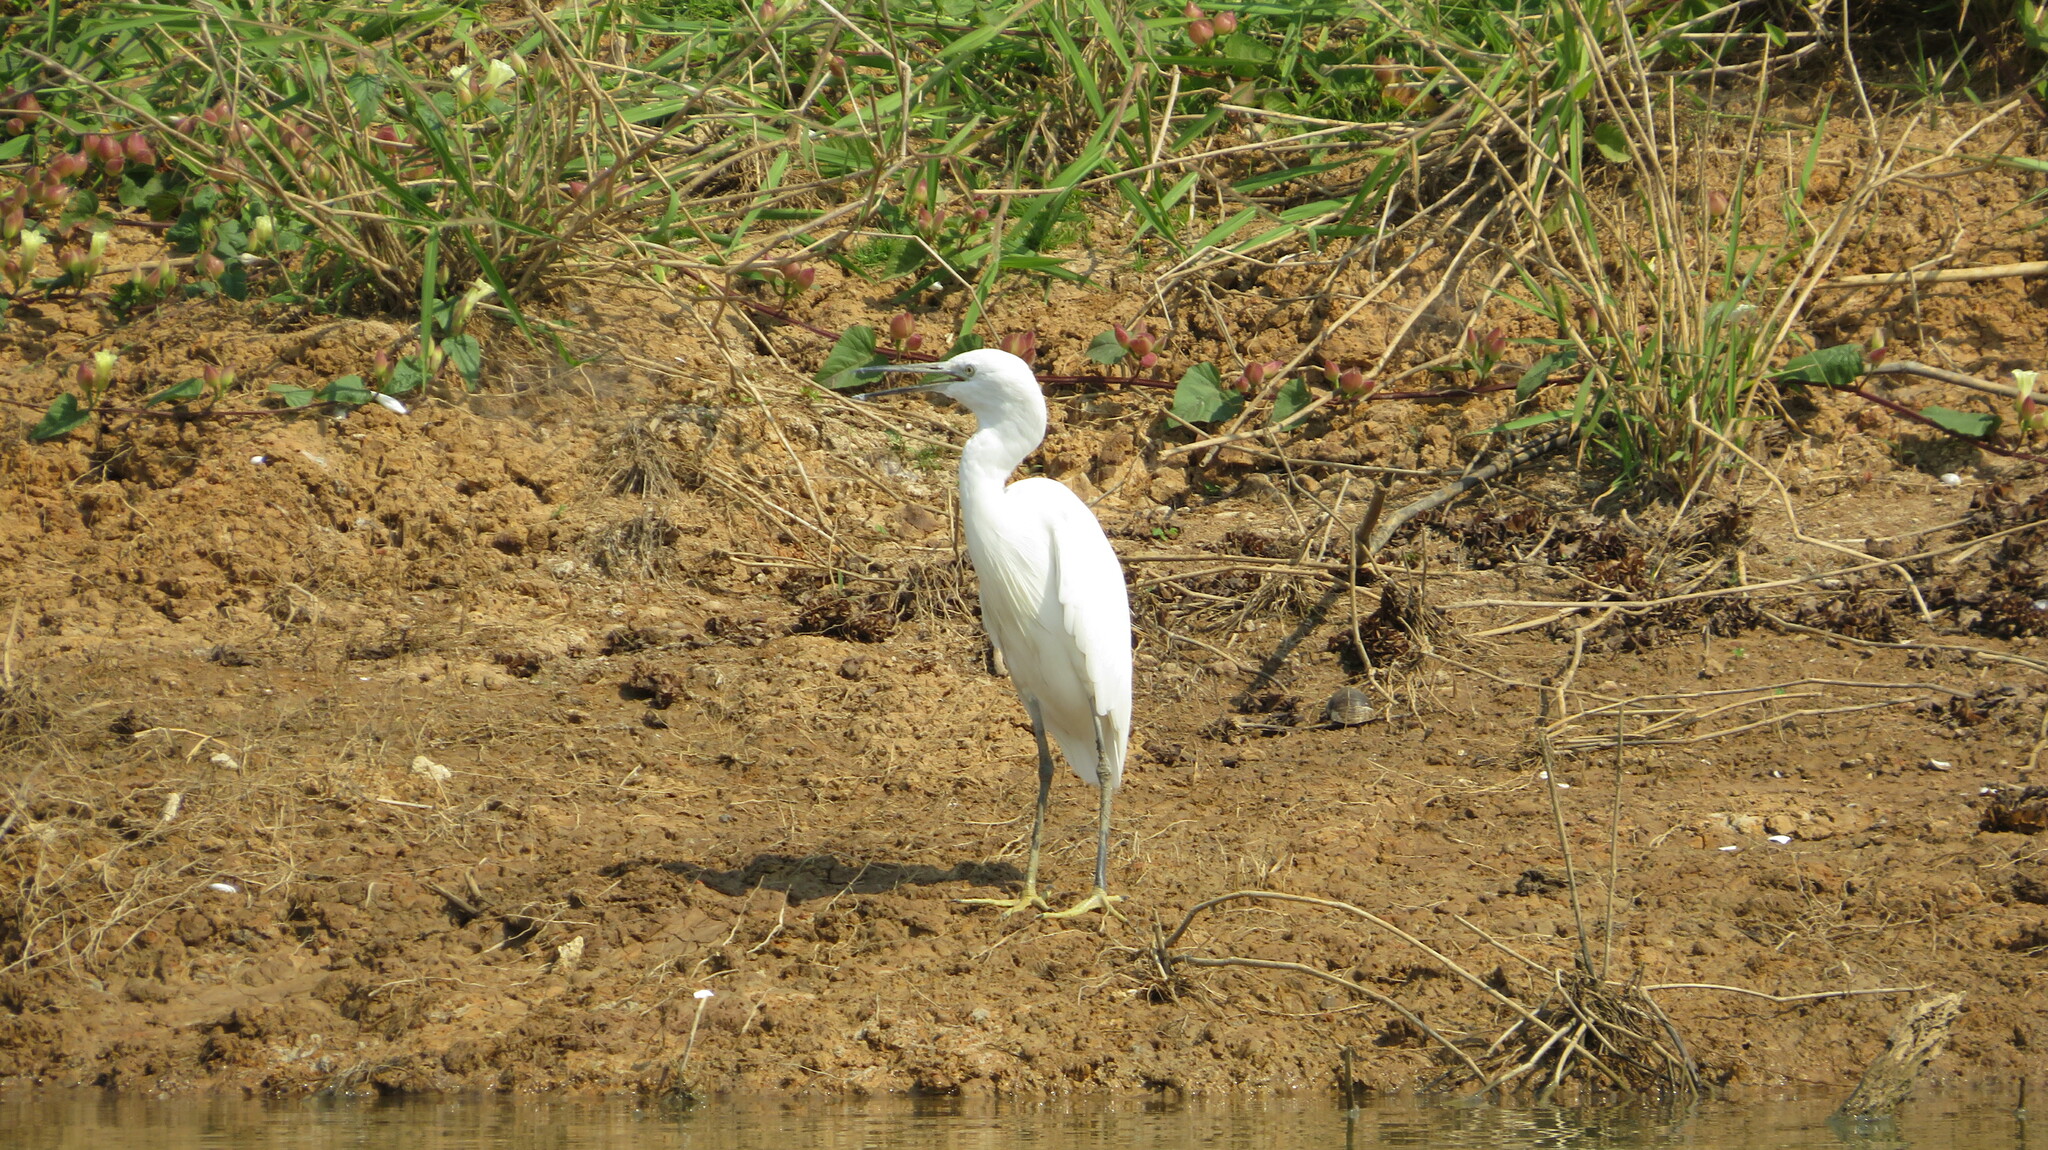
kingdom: Animalia
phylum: Chordata
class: Aves
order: Pelecaniformes
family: Ardeidae
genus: Egretta
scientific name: Egretta garzetta
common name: Little egret
